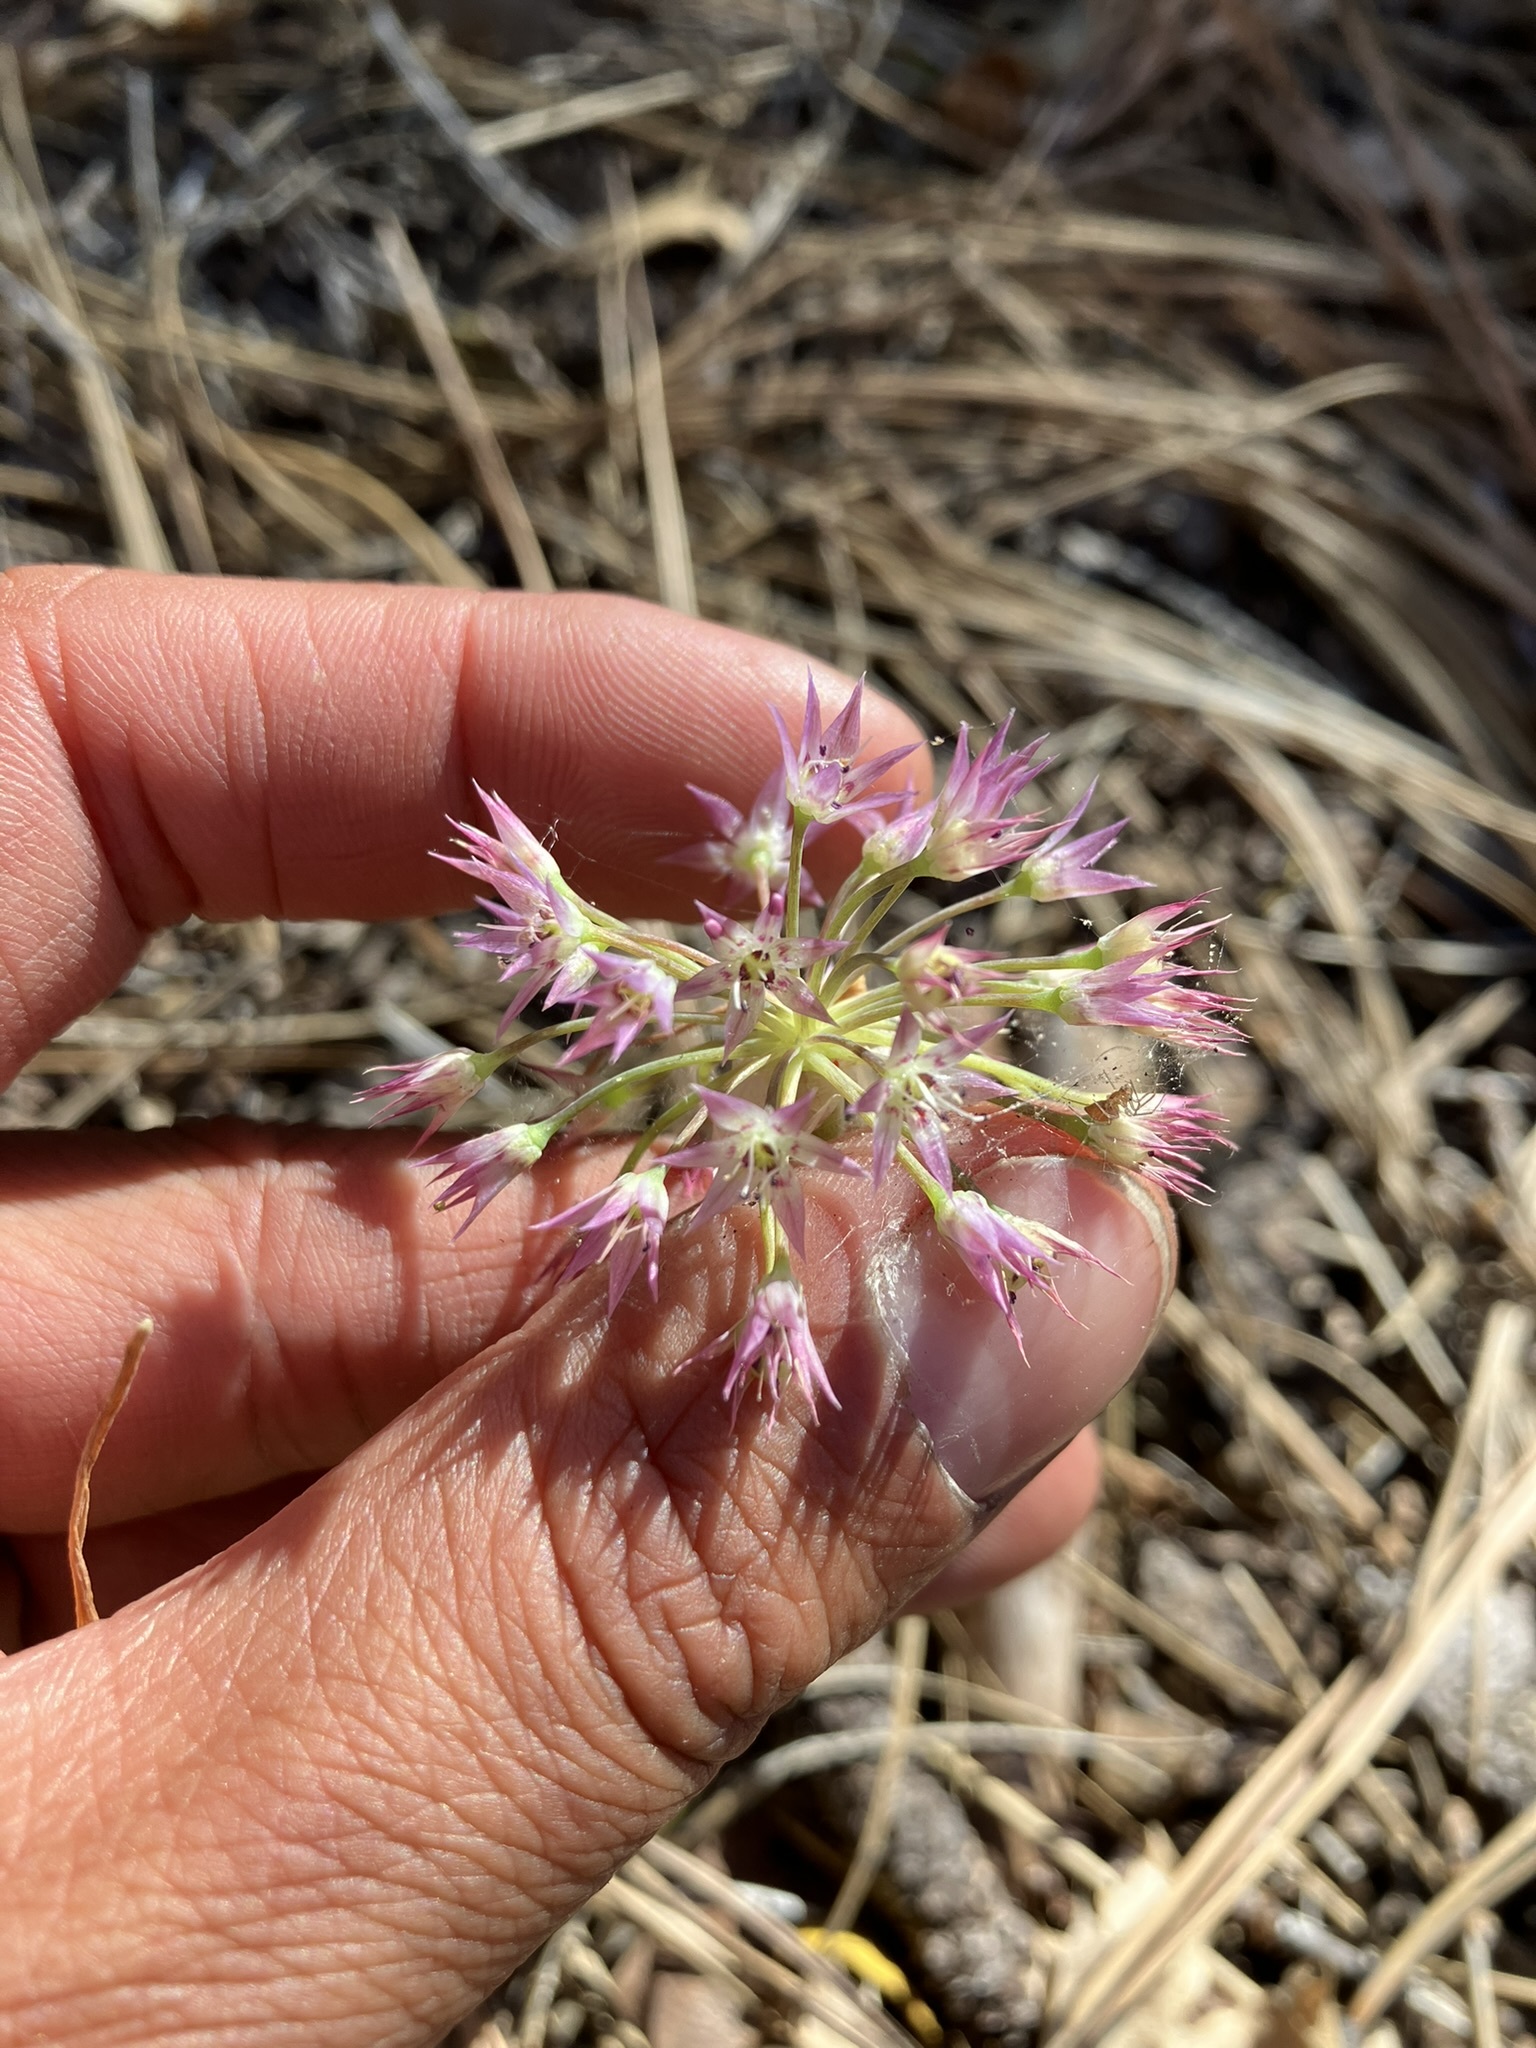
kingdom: Plantae
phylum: Tracheophyta
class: Liliopsida
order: Asparagales
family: Amaryllidaceae
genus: Allium
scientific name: Allium campanulatum
